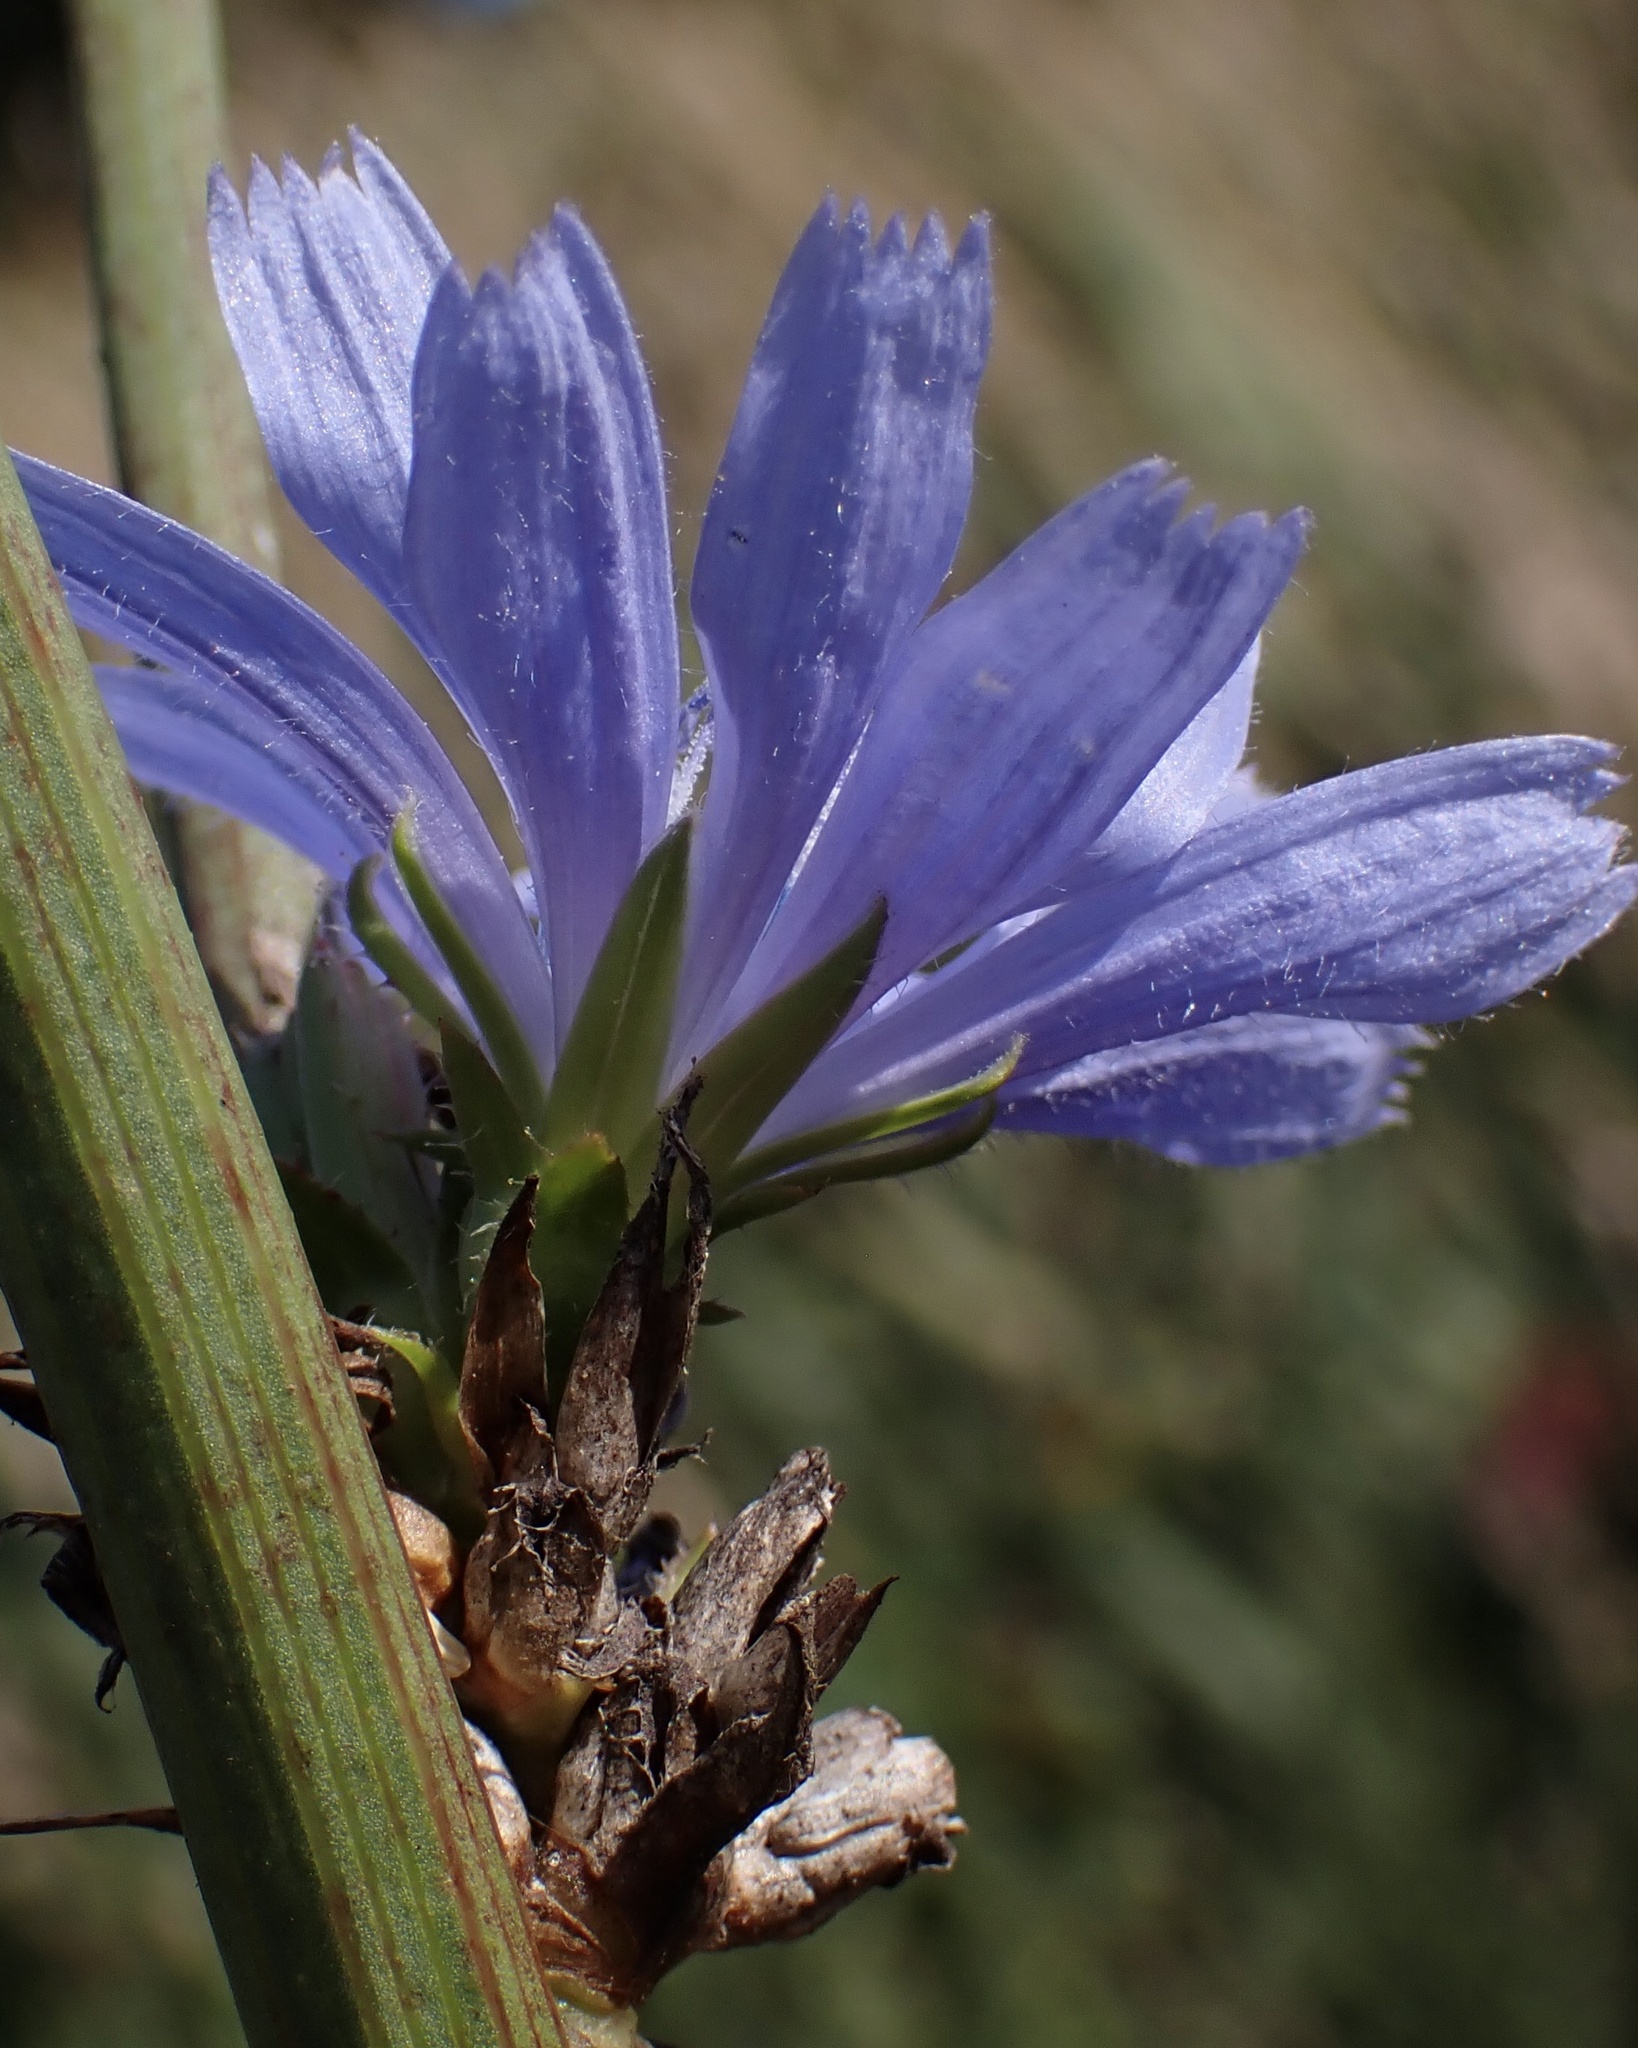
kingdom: Plantae
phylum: Tracheophyta
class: Magnoliopsida
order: Asterales
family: Asteraceae
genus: Cichorium
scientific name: Cichorium intybus
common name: Chicory
